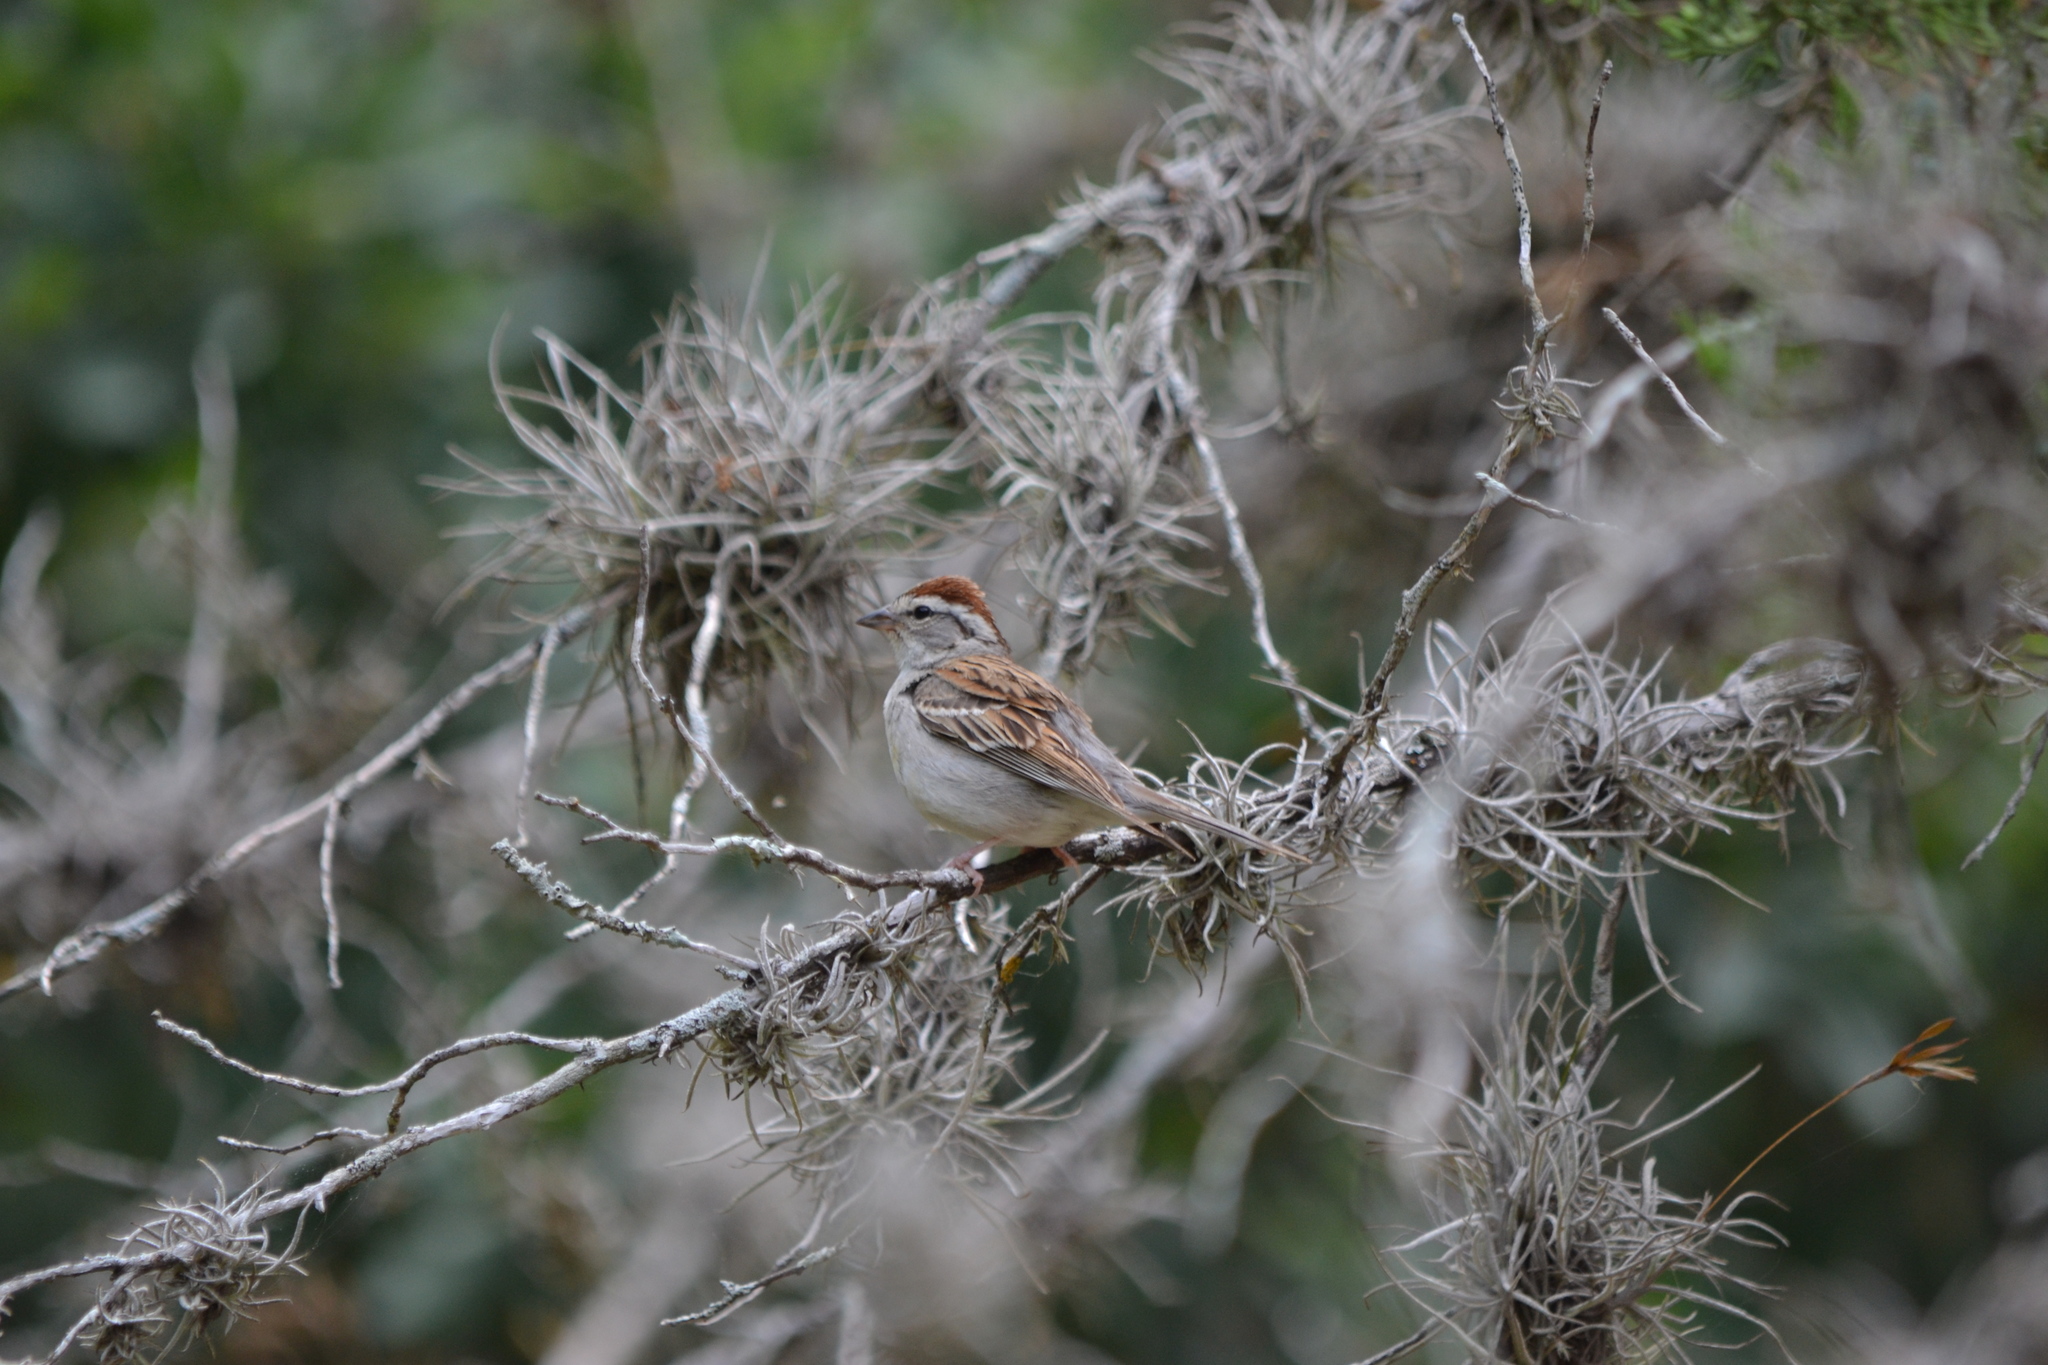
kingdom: Animalia
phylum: Chordata
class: Aves
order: Passeriformes
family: Passerellidae
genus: Spizella
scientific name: Spizella passerina
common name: Chipping sparrow
